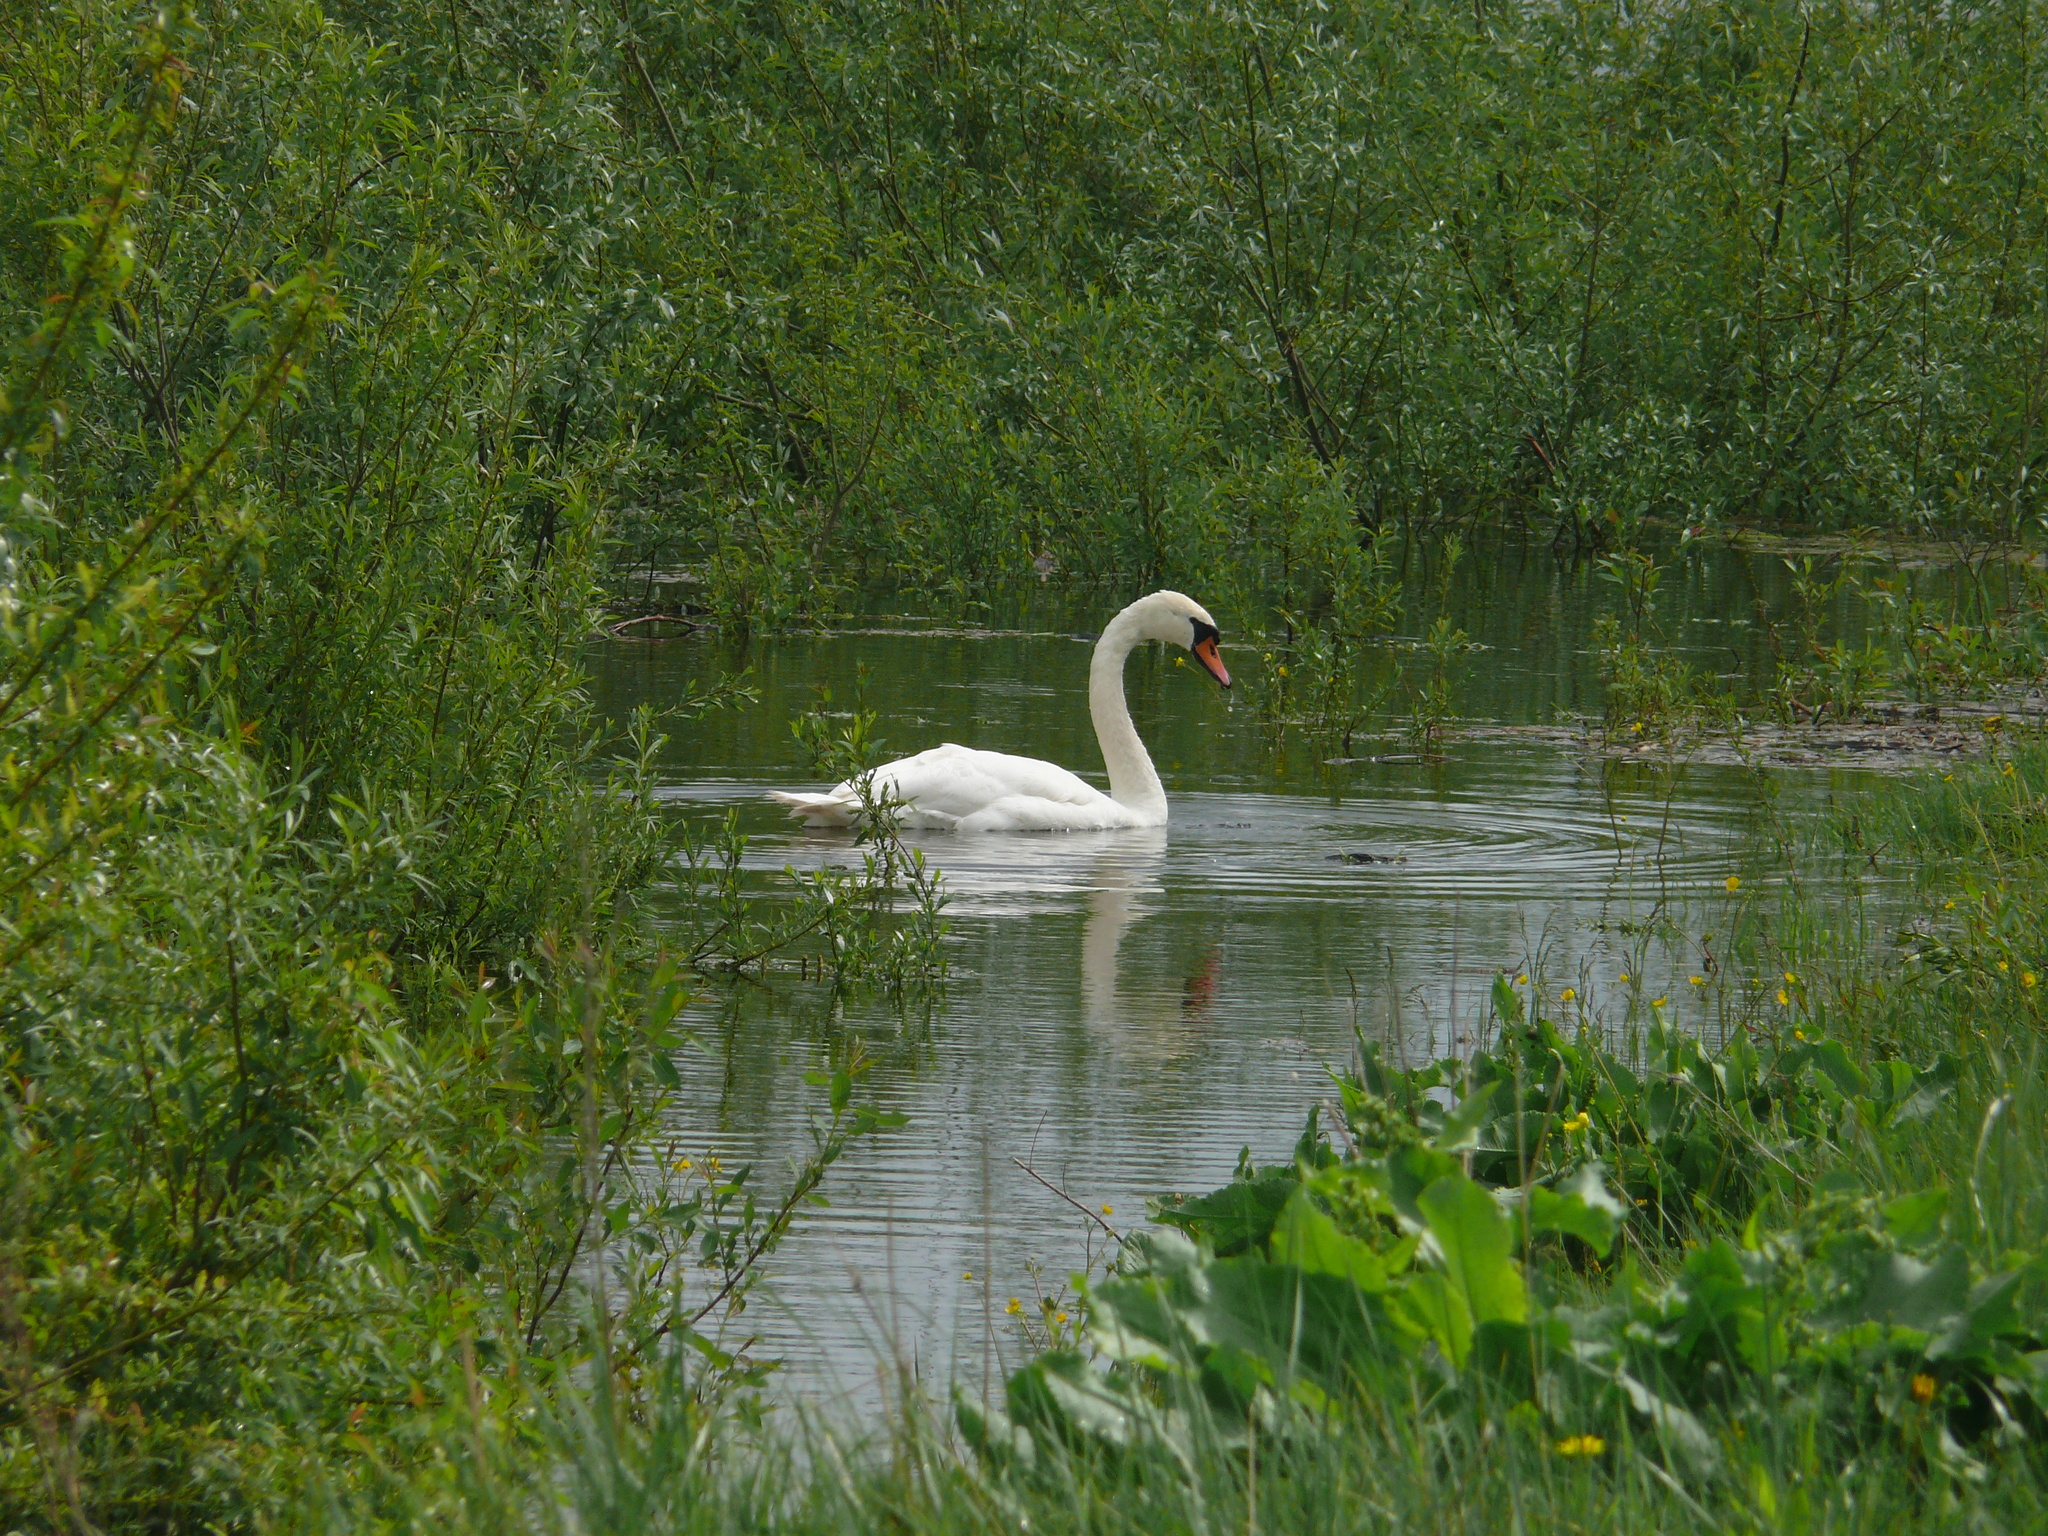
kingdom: Animalia
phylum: Chordata
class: Aves
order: Anseriformes
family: Anatidae
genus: Cygnus
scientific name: Cygnus olor
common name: Mute swan
